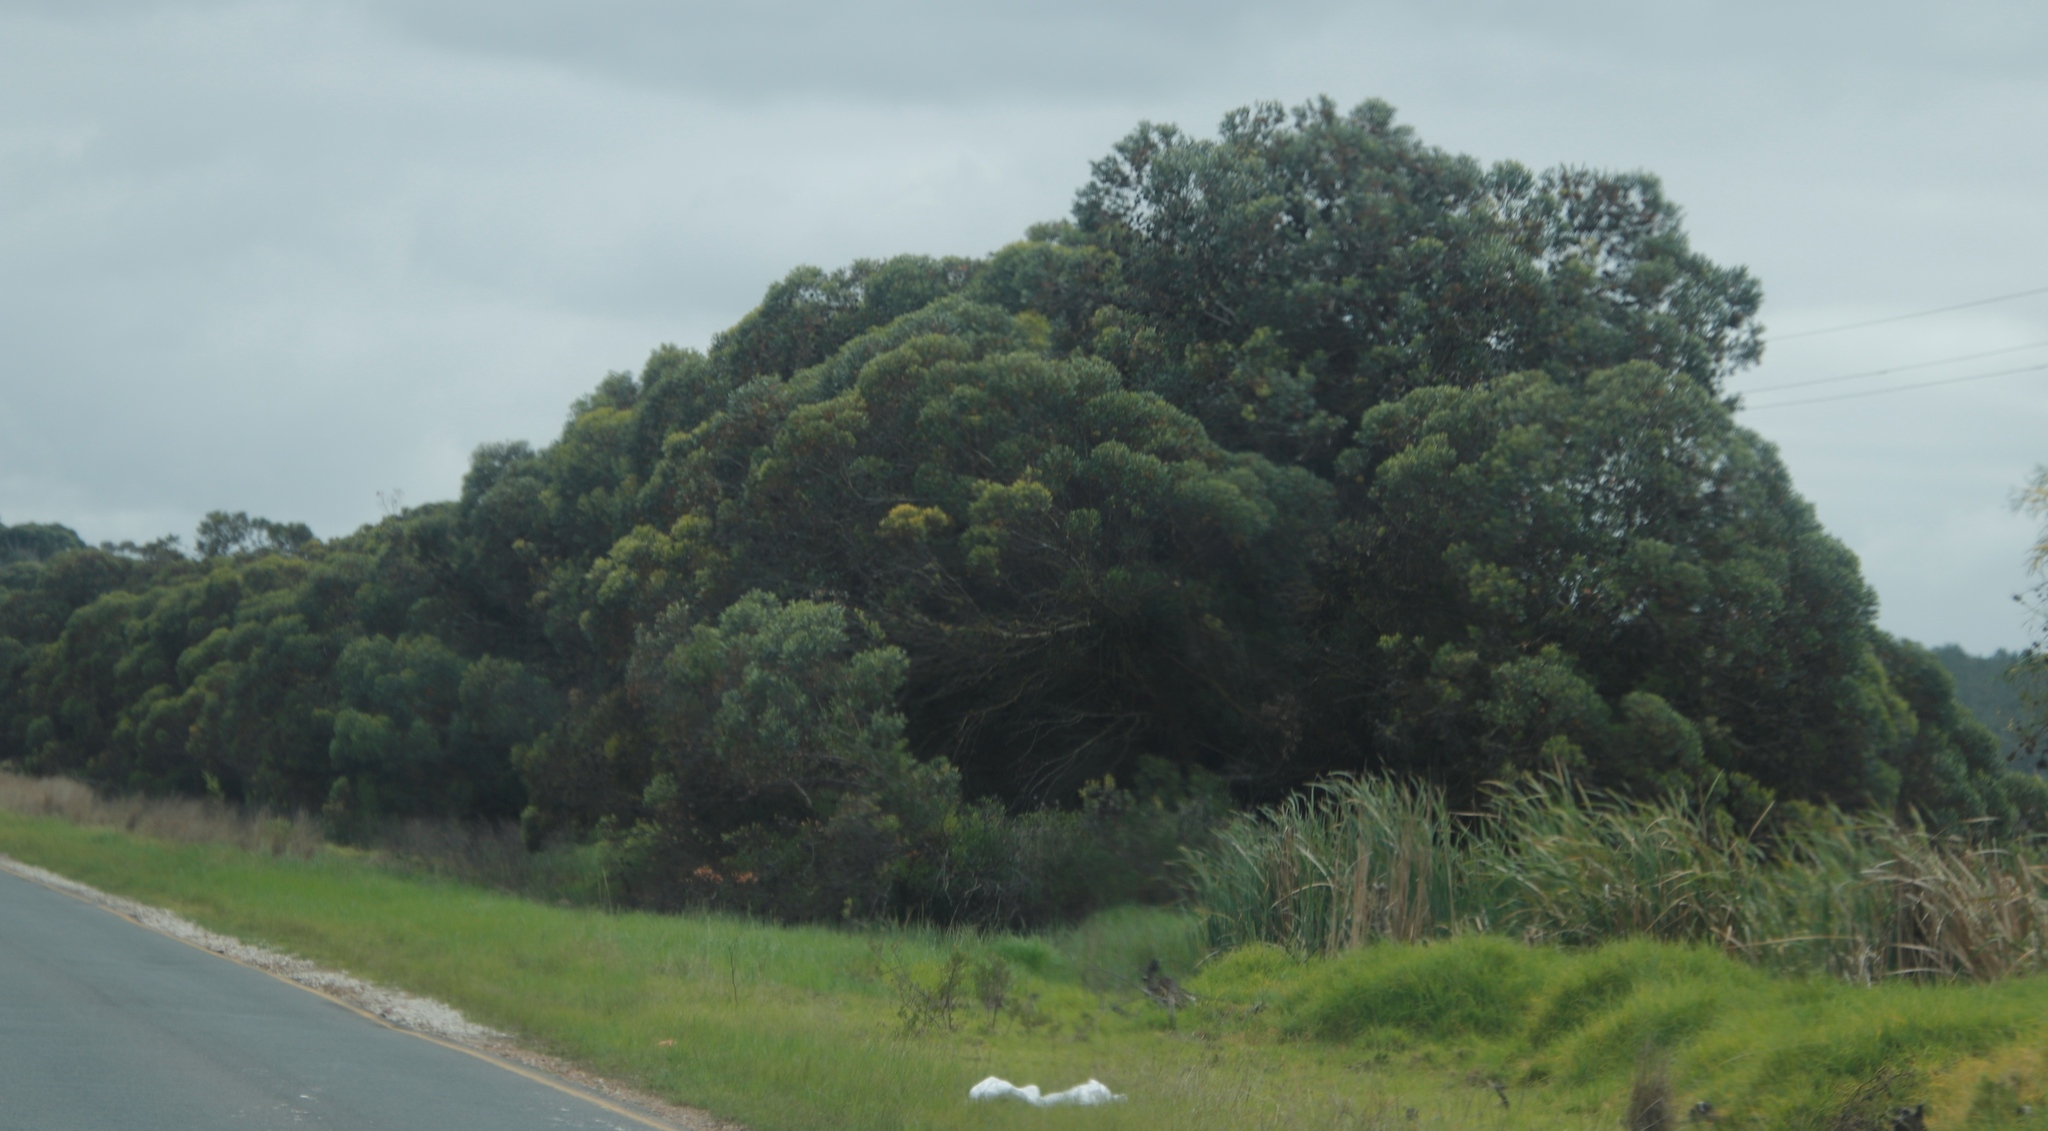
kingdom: Plantae
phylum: Tracheophyta
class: Magnoliopsida
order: Myrtales
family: Myrtaceae
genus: Eucalyptus
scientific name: Eucalyptus conferruminata
